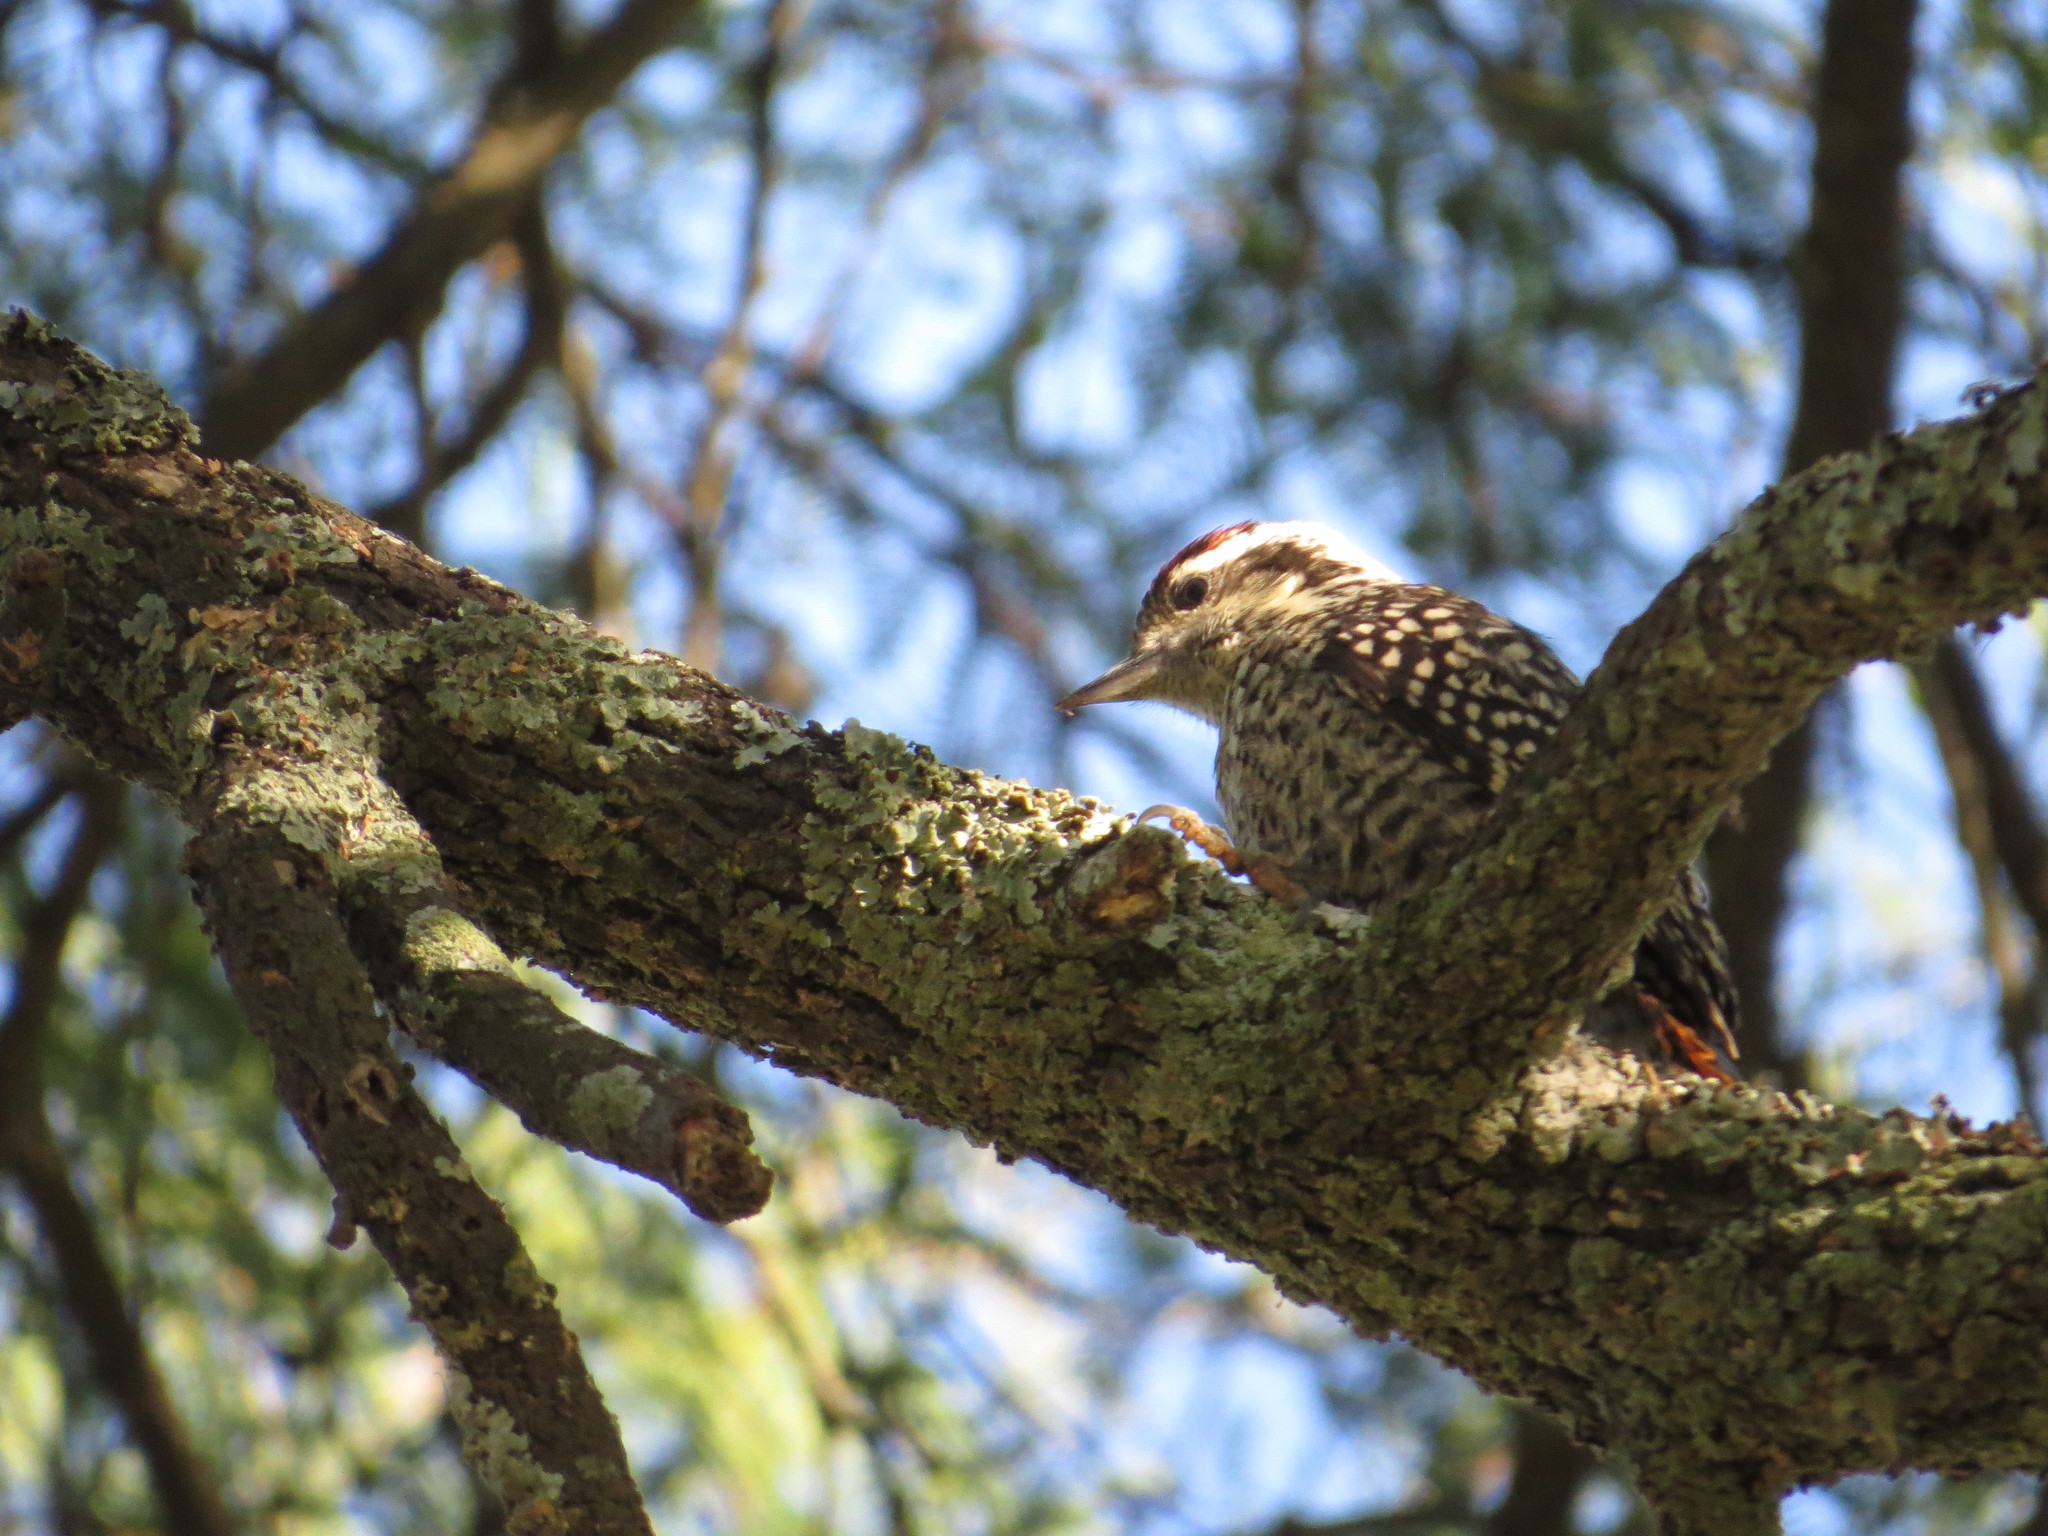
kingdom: Animalia
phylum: Chordata
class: Aves
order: Piciformes
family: Picidae
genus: Veniliornis
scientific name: Veniliornis mixtus
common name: Checkered woodpecker
